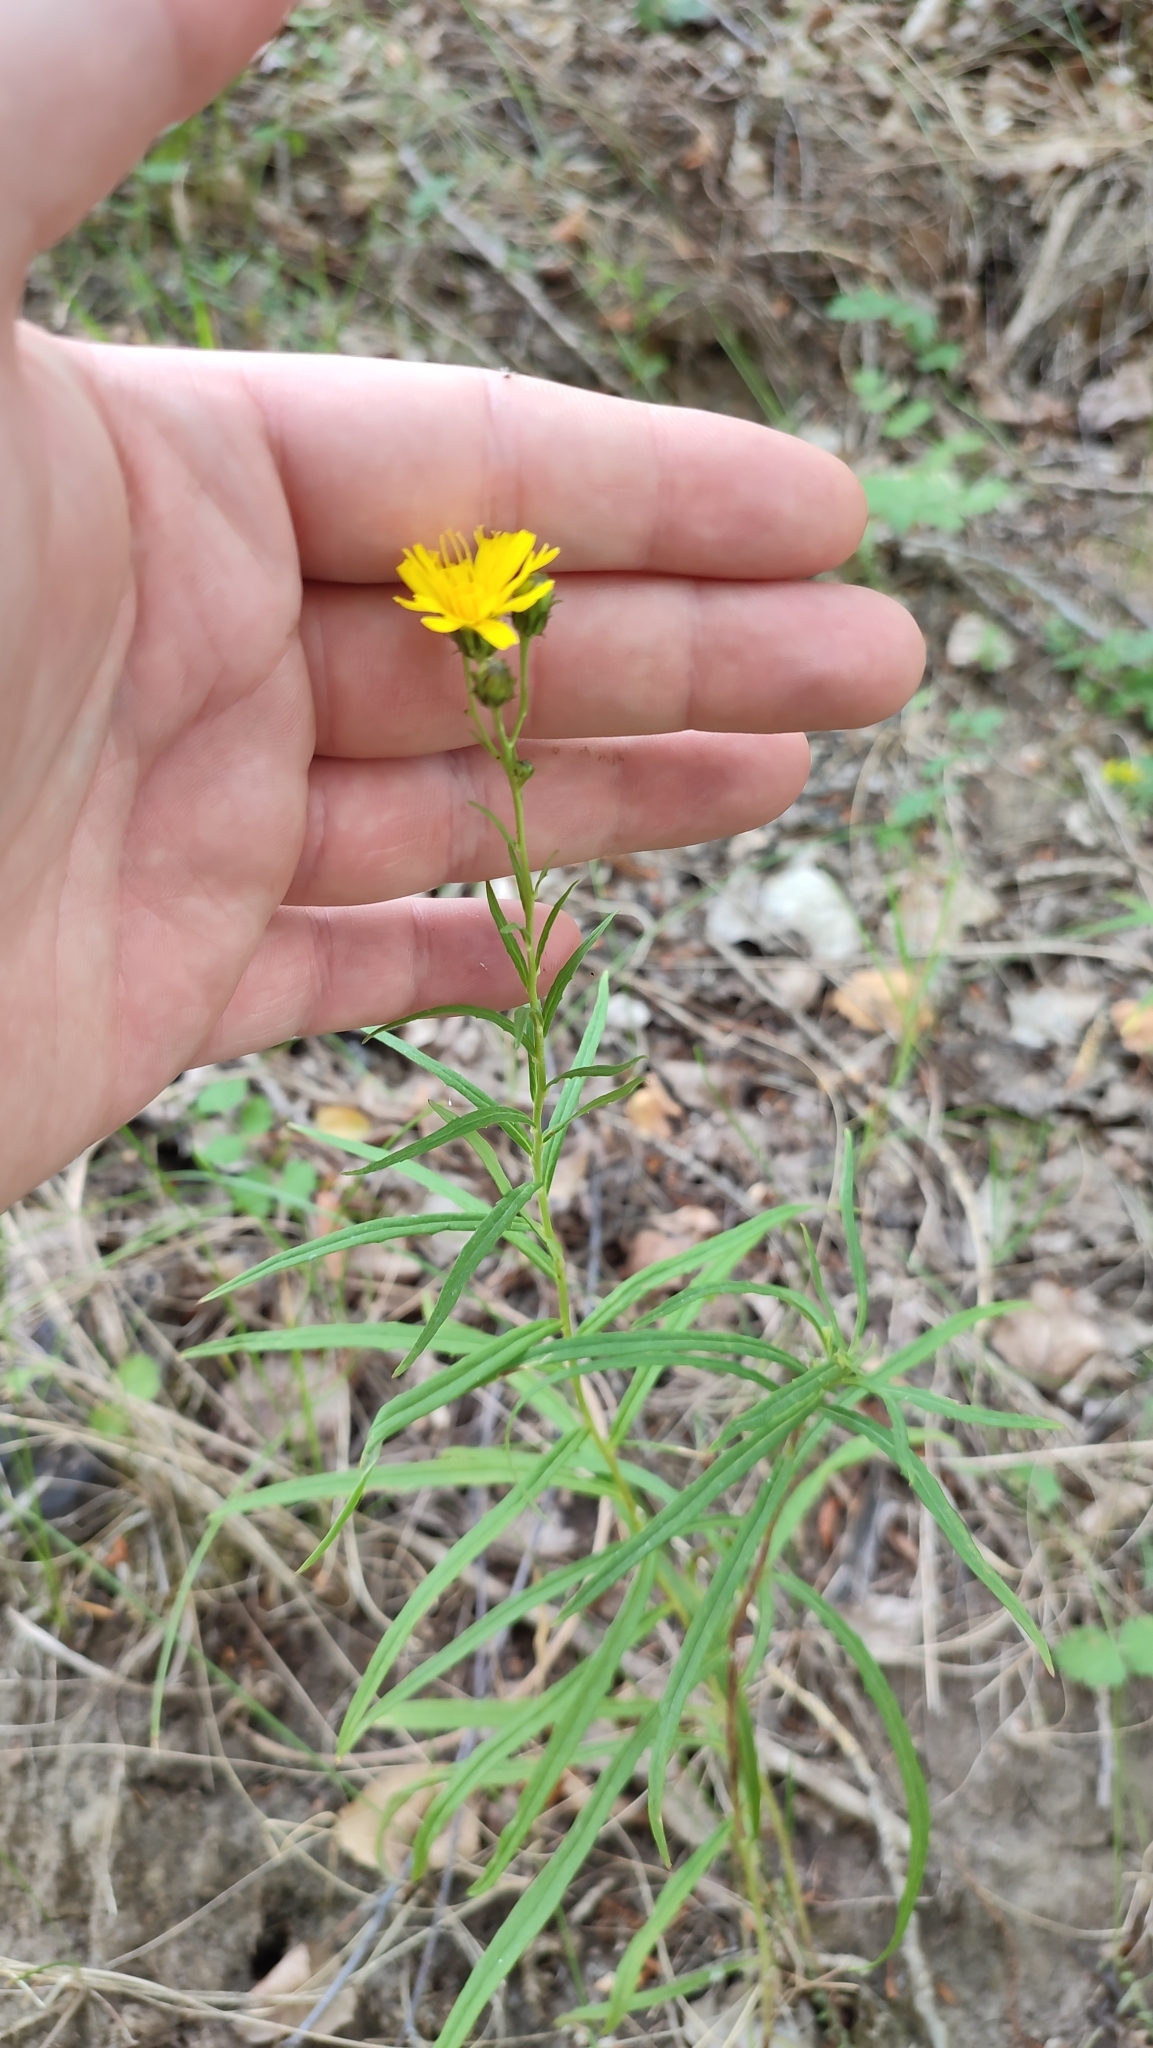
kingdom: Plantae
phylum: Tracheophyta
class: Magnoliopsida
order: Asterales
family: Asteraceae
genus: Hieracium
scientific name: Hieracium umbellatum
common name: Northern hawkweed
